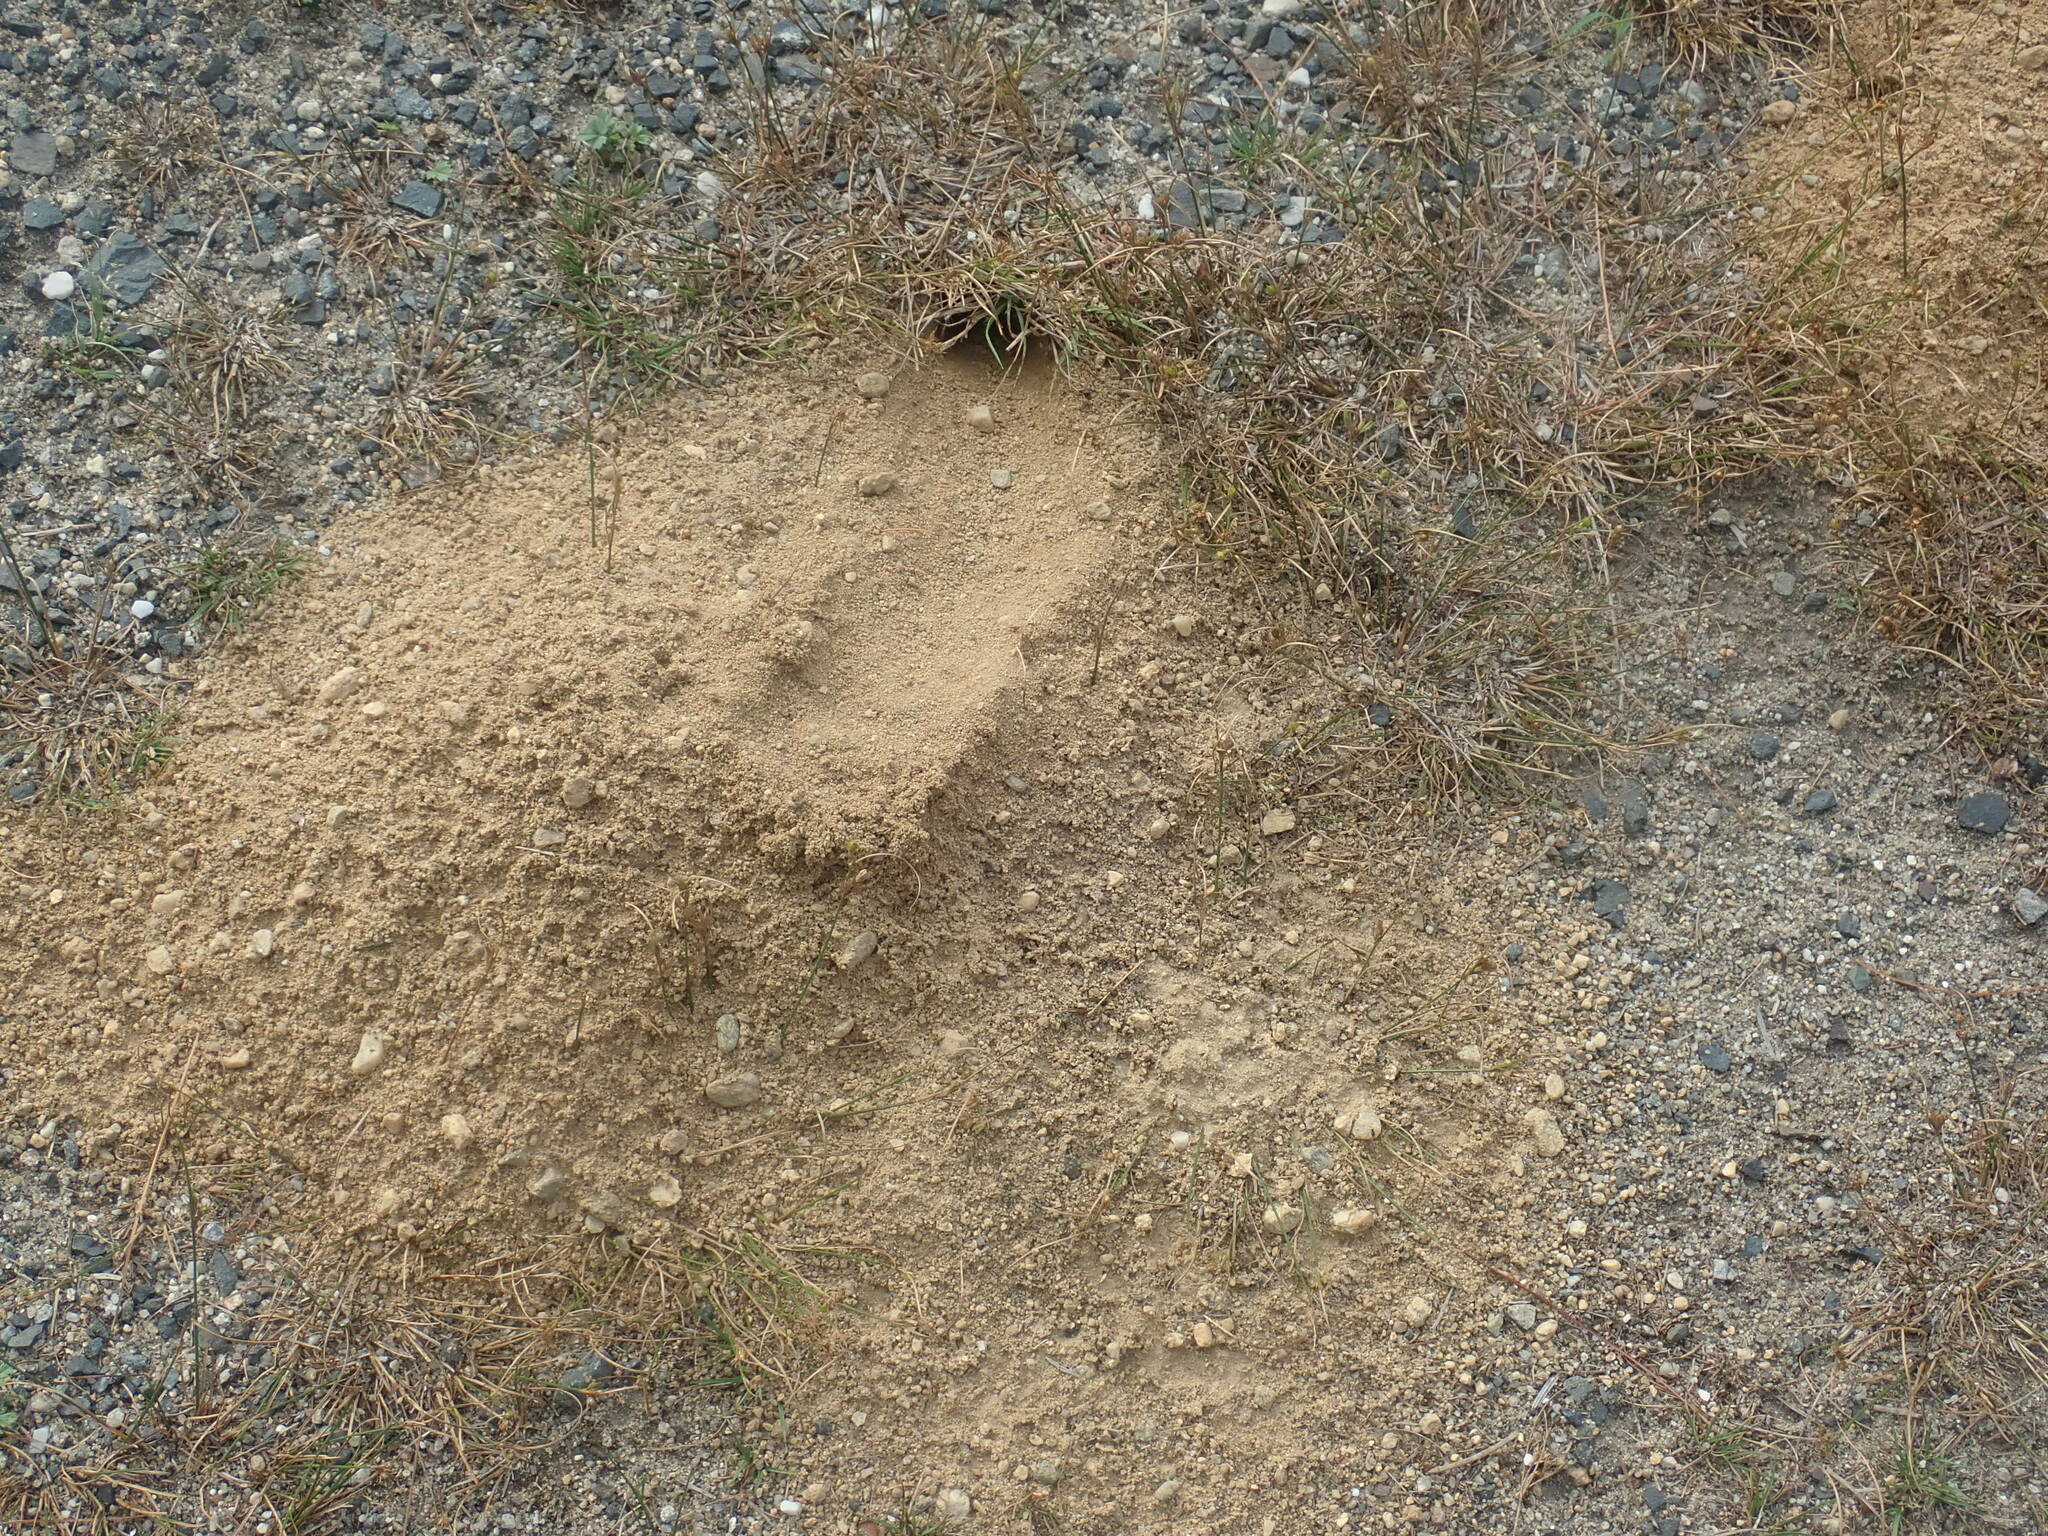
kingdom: Animalia
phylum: Arthropoda
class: Insecta
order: Hymenoptera
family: Crabronidae
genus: Sphecius
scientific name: Sphecius speciosus
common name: Cicada killer
